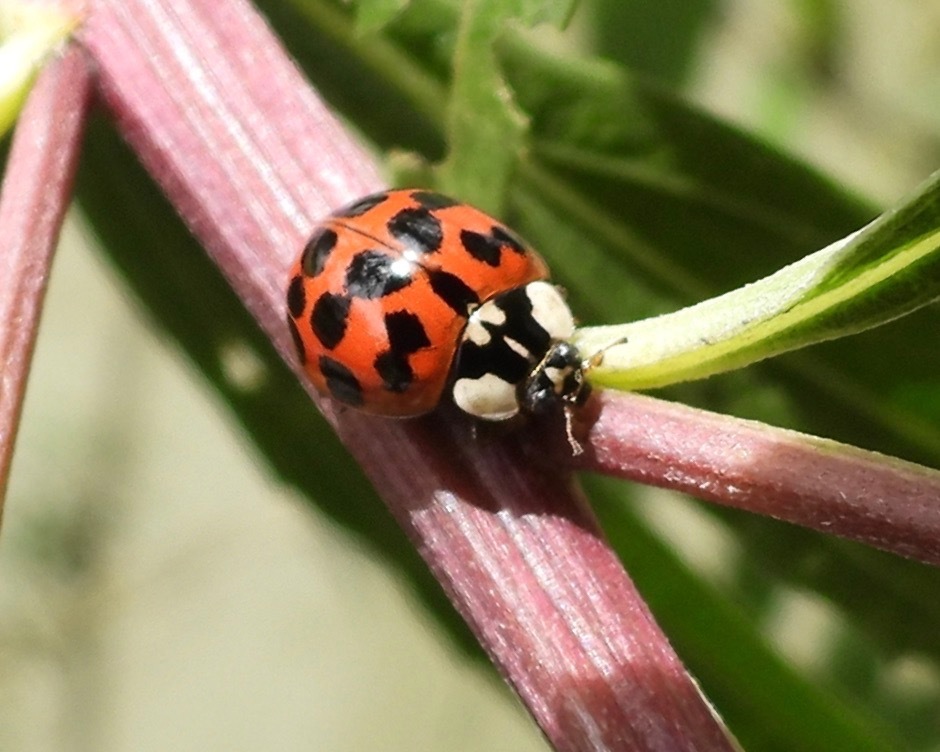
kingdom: Animalia
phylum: Arthropoda
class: Insecta
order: Coleoptera
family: Coccinellidae
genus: Harmonia
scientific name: Harmonia axyridis
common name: Harlequin ladybird
